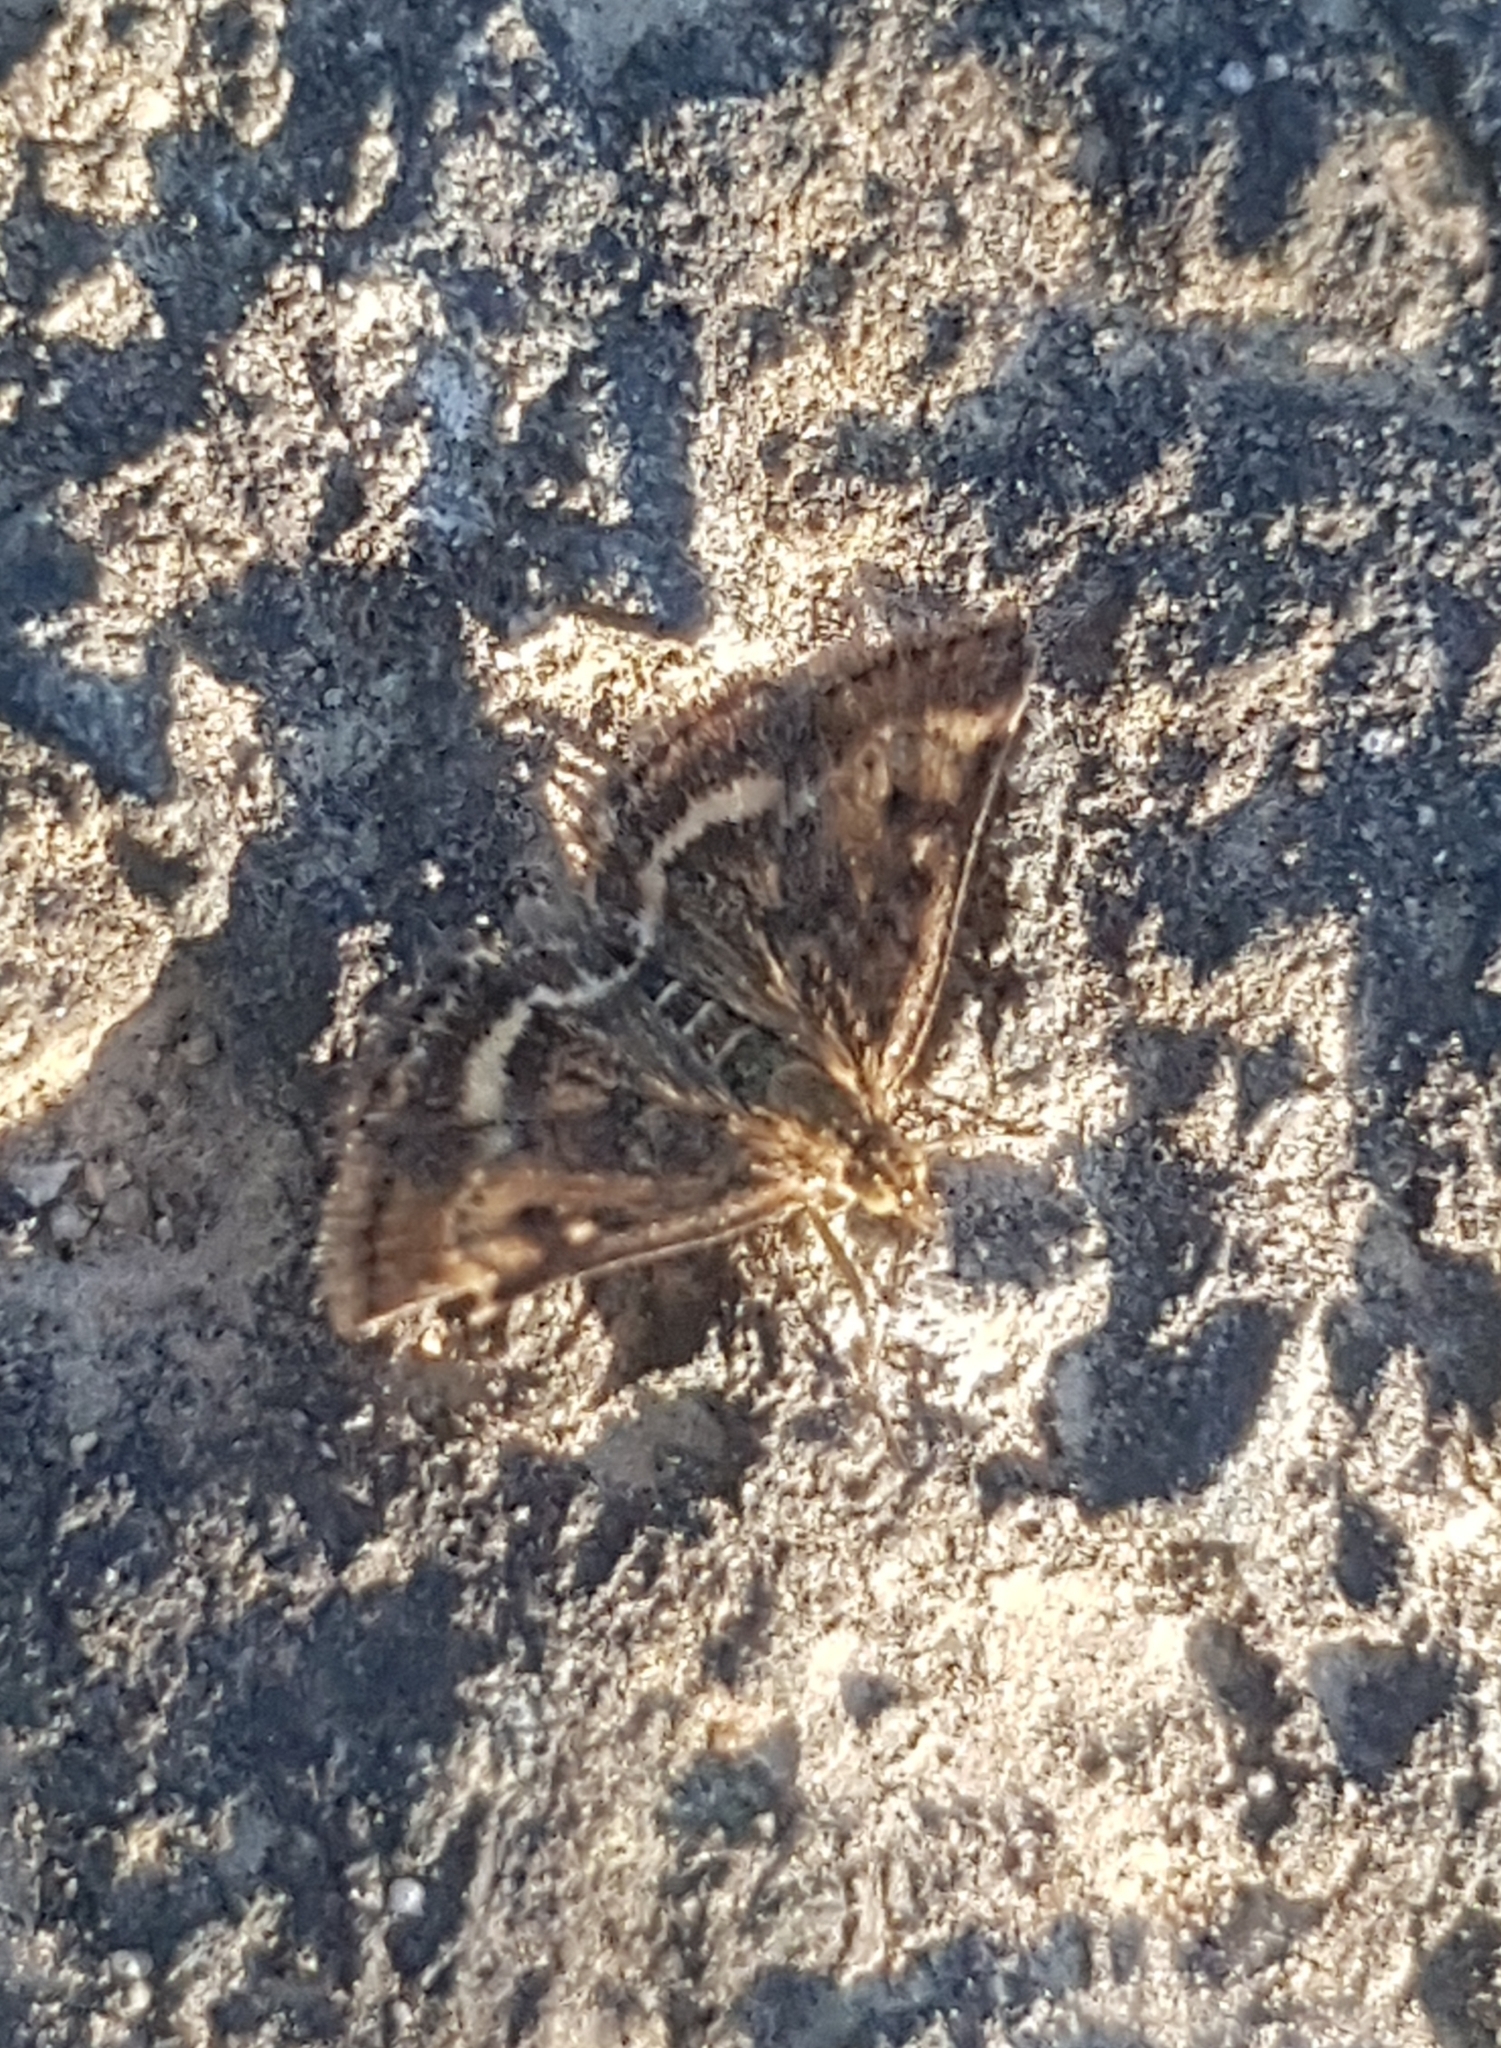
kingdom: Animalia
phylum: Arthropoda
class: Insecta
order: Lepidoptera
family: Crambidae
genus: Pyrausta
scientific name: Pyrausta despicata
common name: Straw-barred pearl
